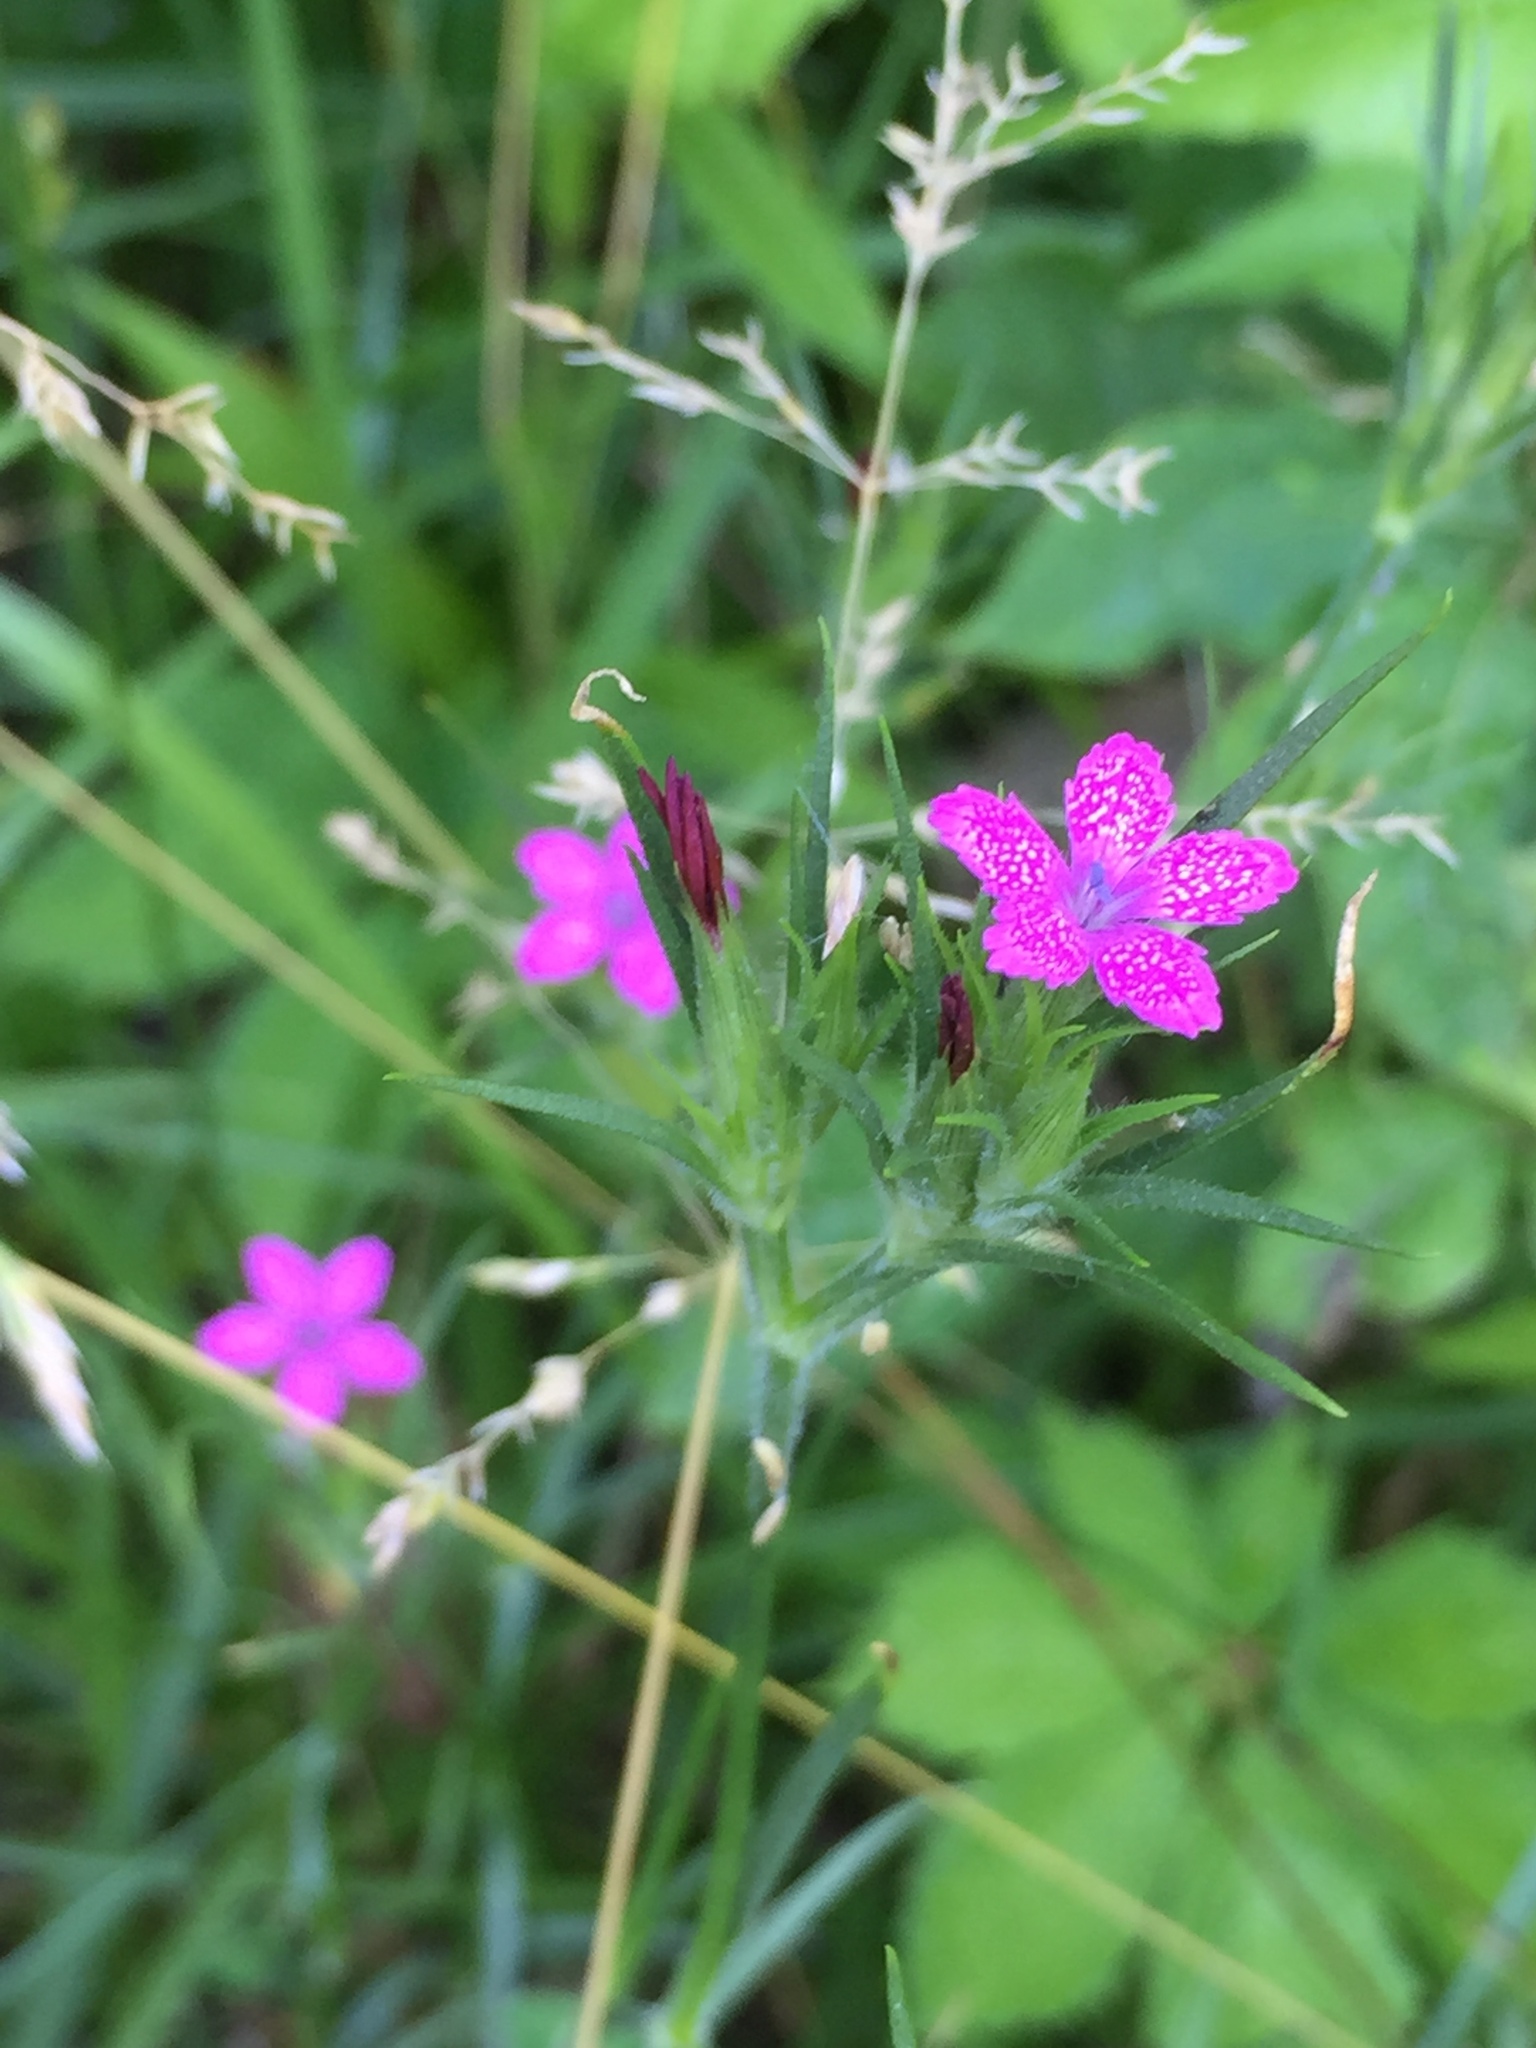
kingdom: Plantae
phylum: Tracheophyta
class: Magnoliopsida
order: Caryophyllales
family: Caryophyllaceae
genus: Dianthus
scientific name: Dianthus armeria
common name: Deptford pink
